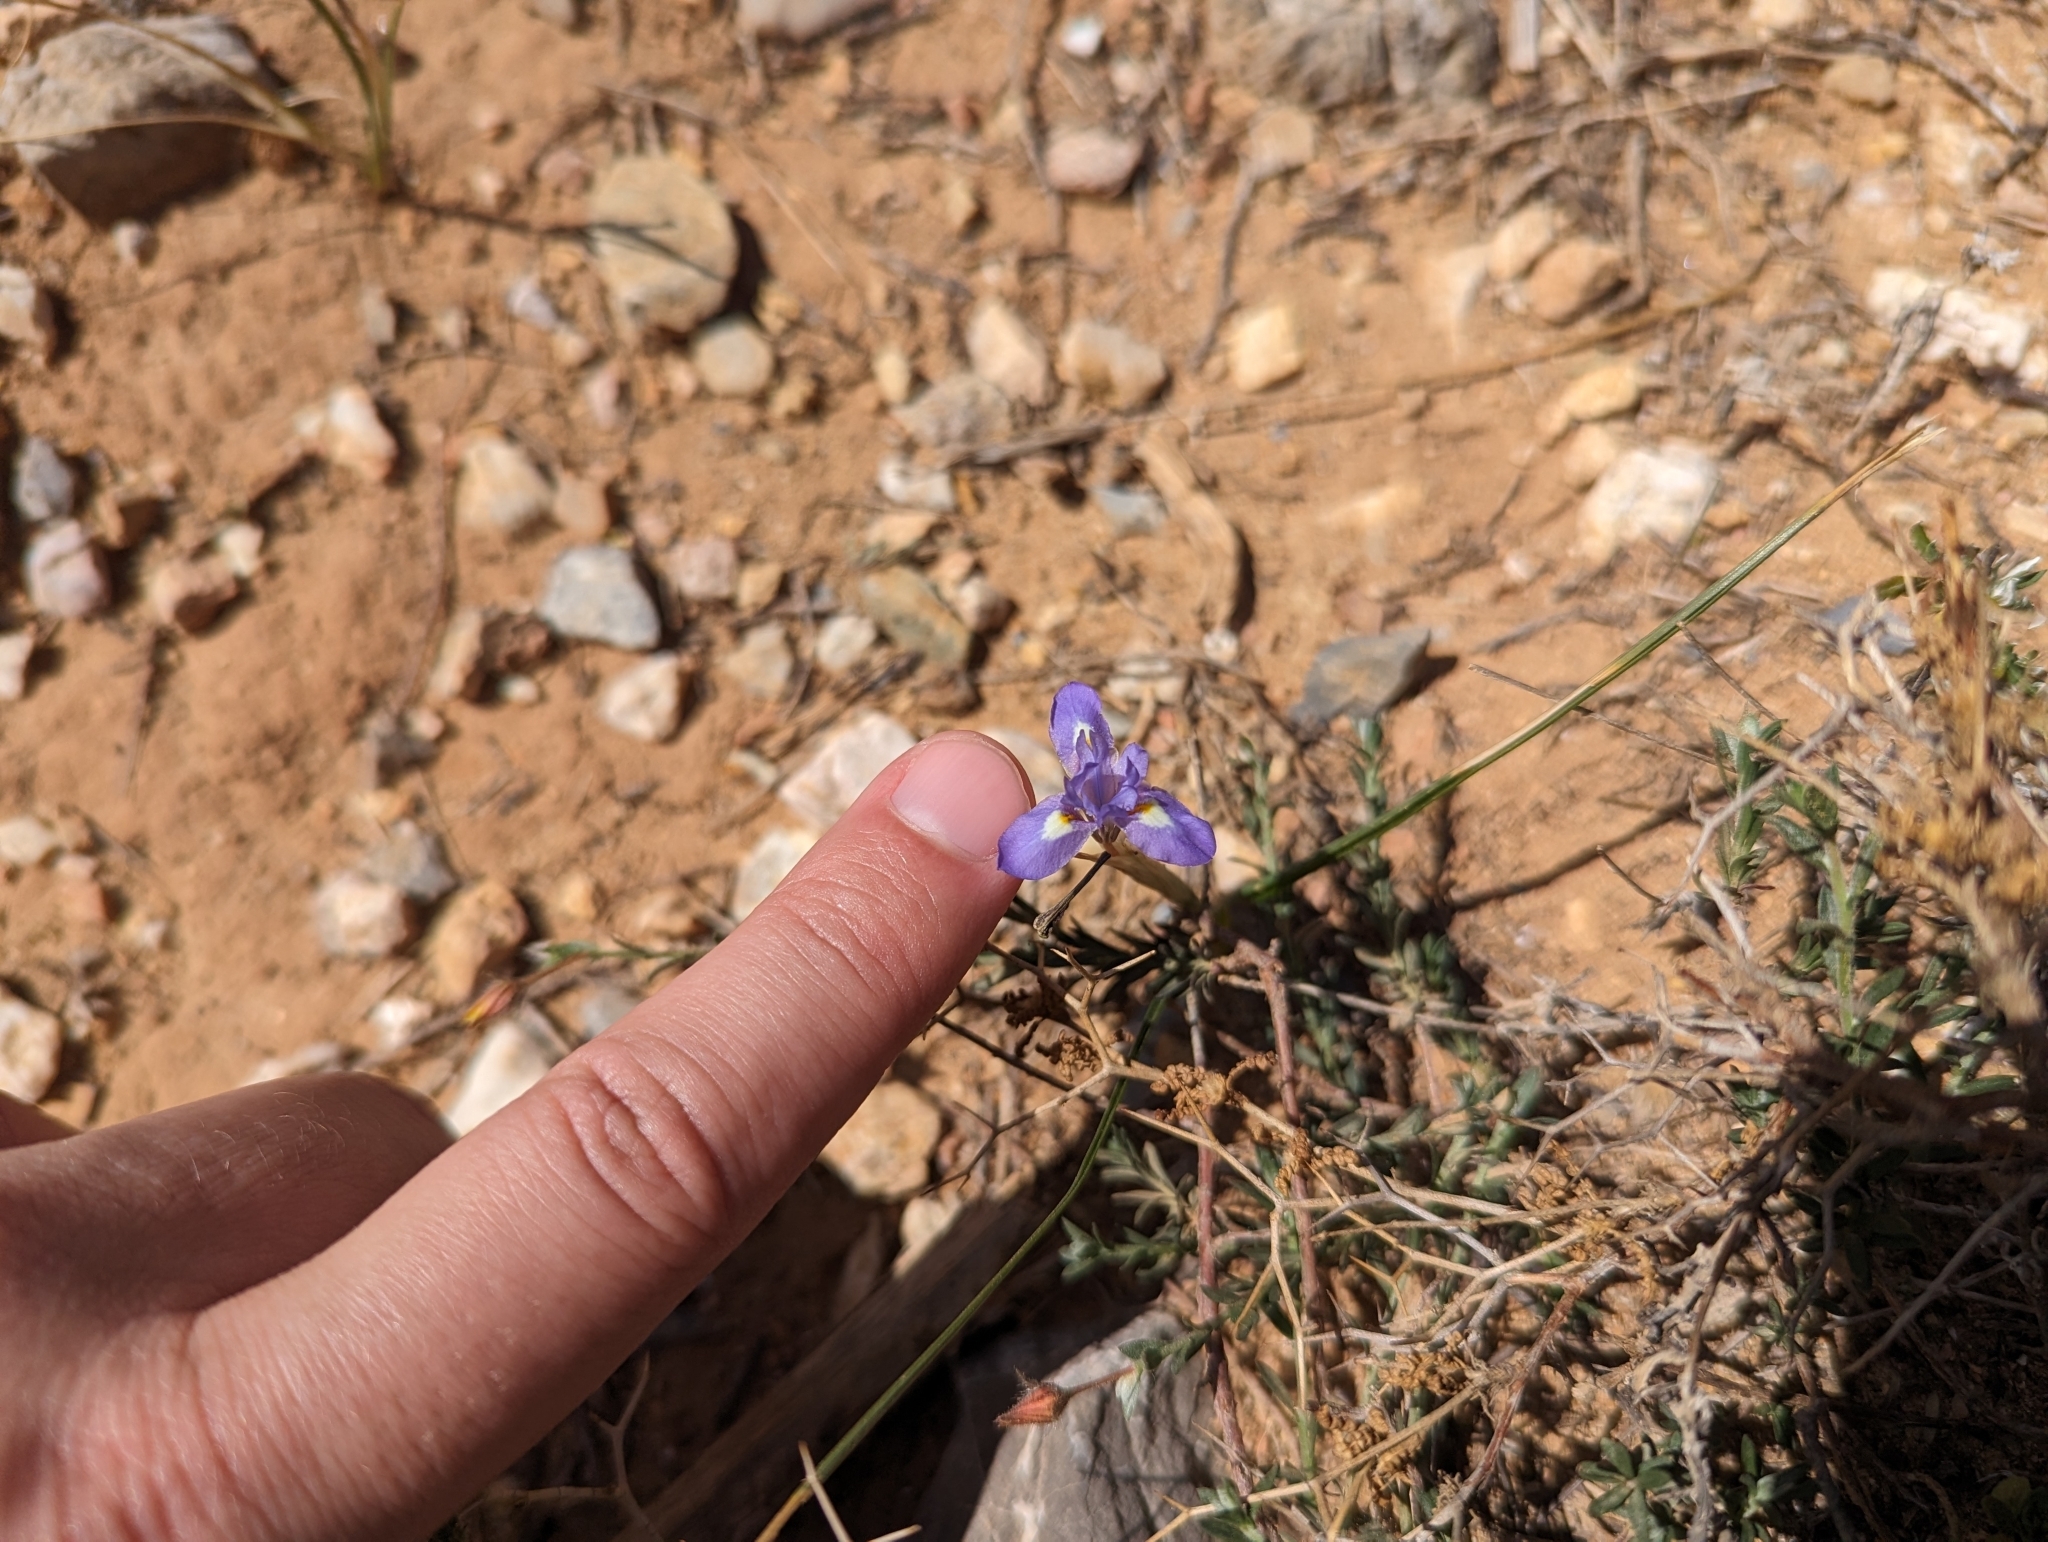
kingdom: Plantae
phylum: Tracheophyta
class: Liliopsida
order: Asparagales
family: Iridaceae
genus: Moraea
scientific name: Moraea sisyrinchium
